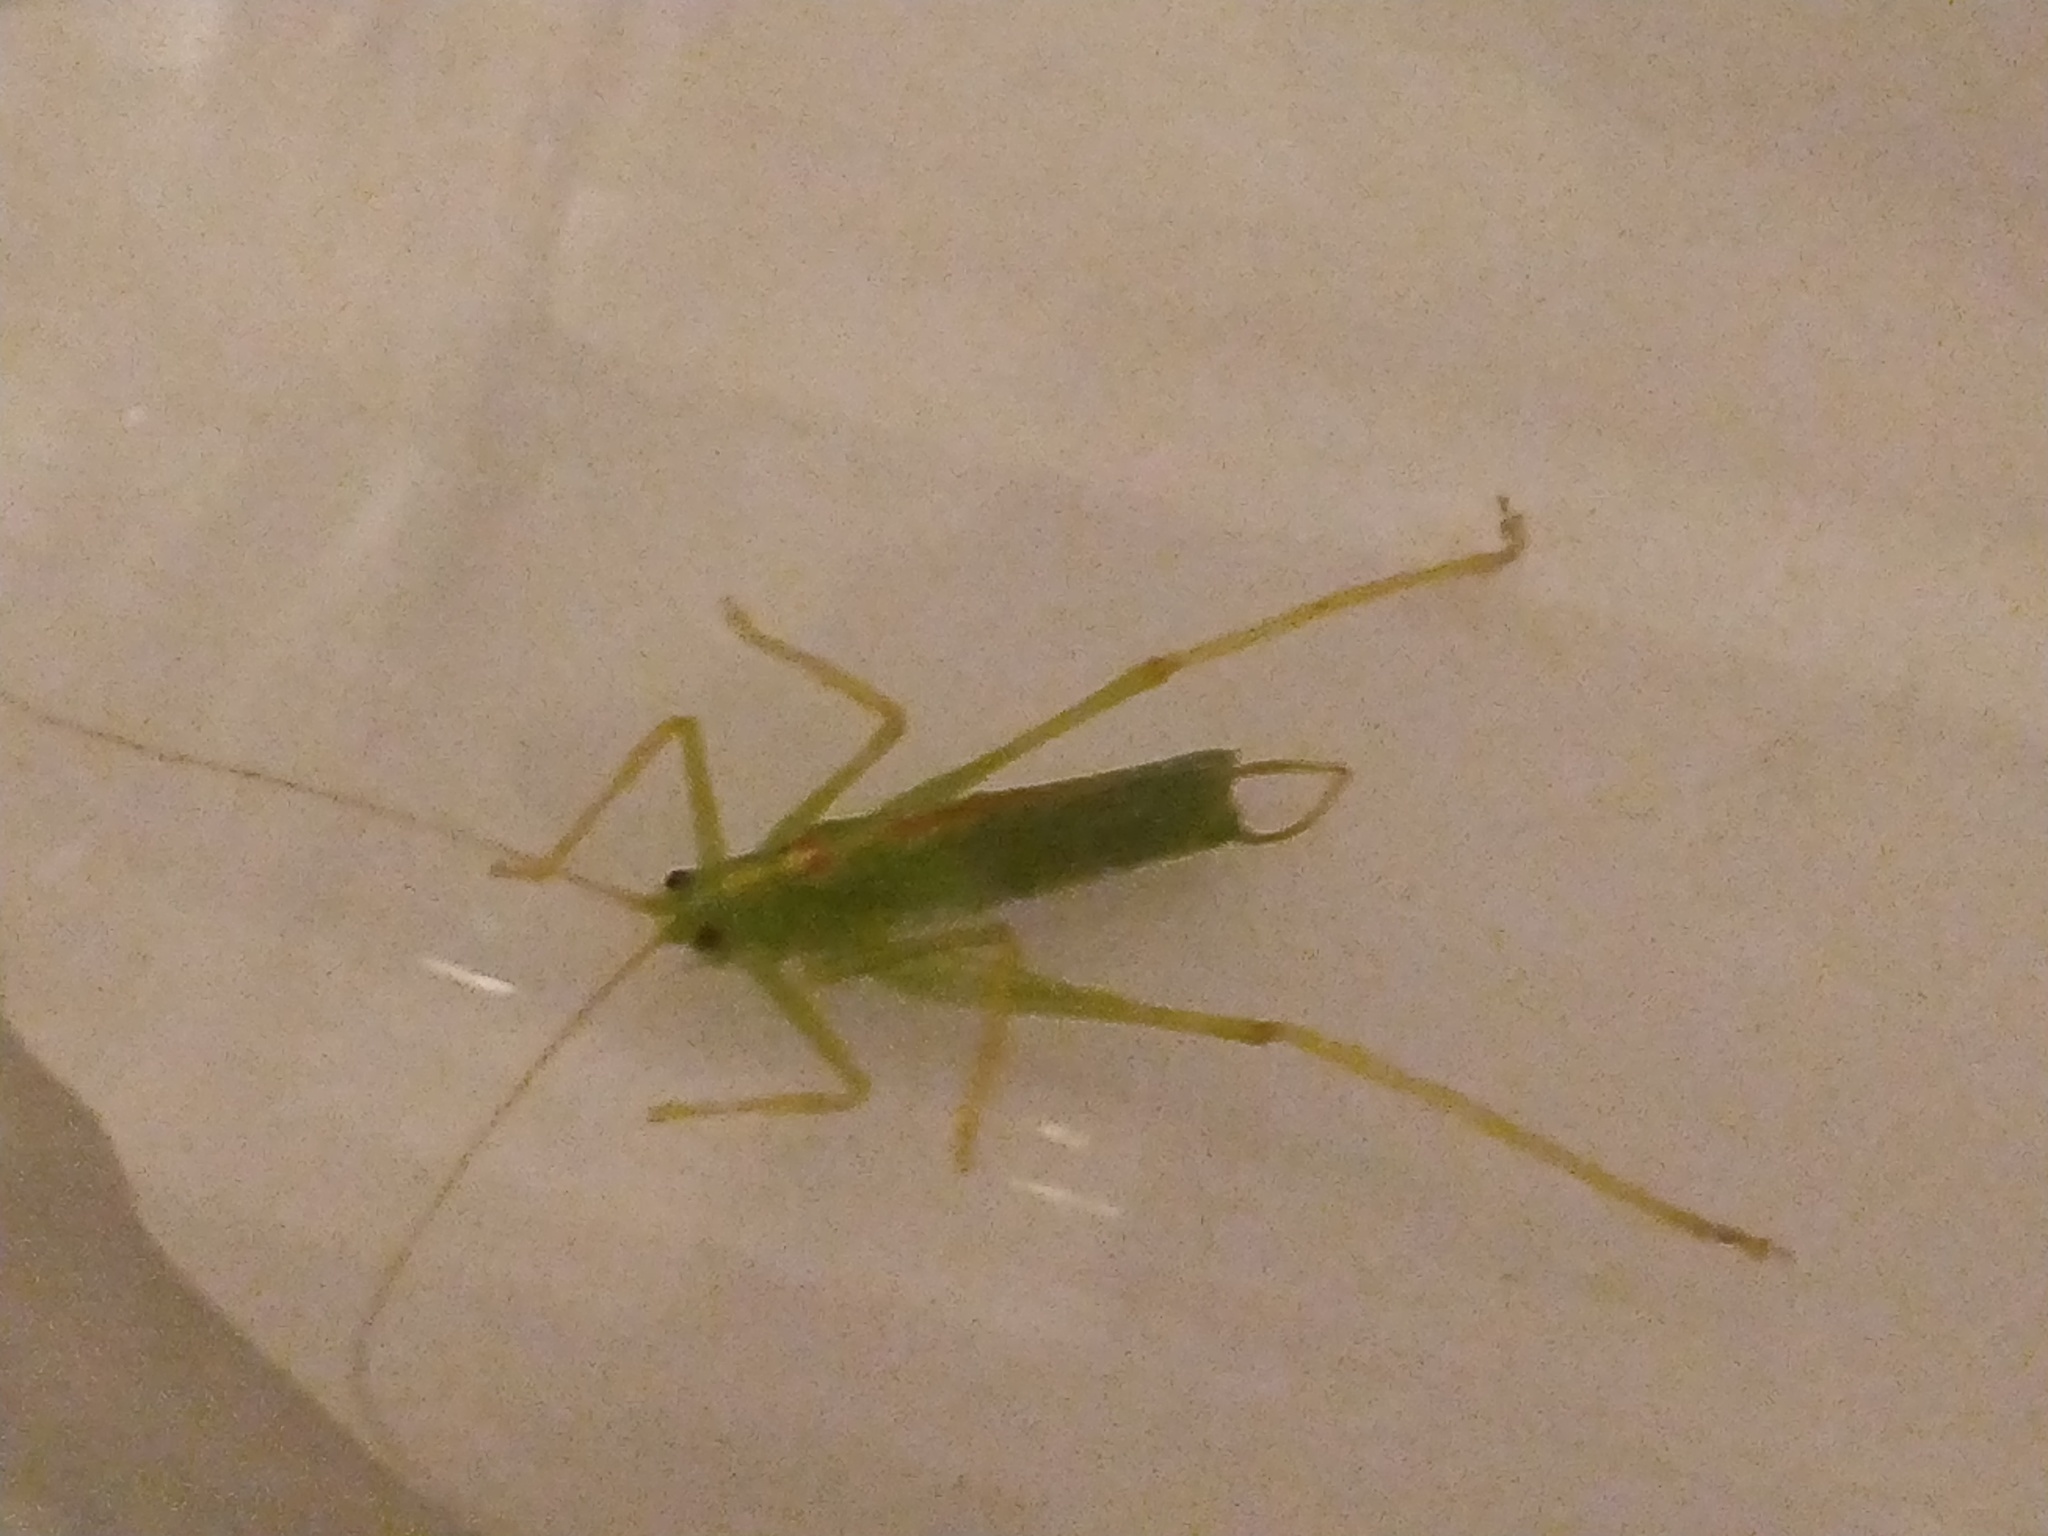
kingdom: Animalia
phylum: Arthropoda
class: Insecta
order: Orthoptera
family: Tettigoniidae
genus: Meconema
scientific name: Meconema thalassinum
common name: Oak bush-cricket
